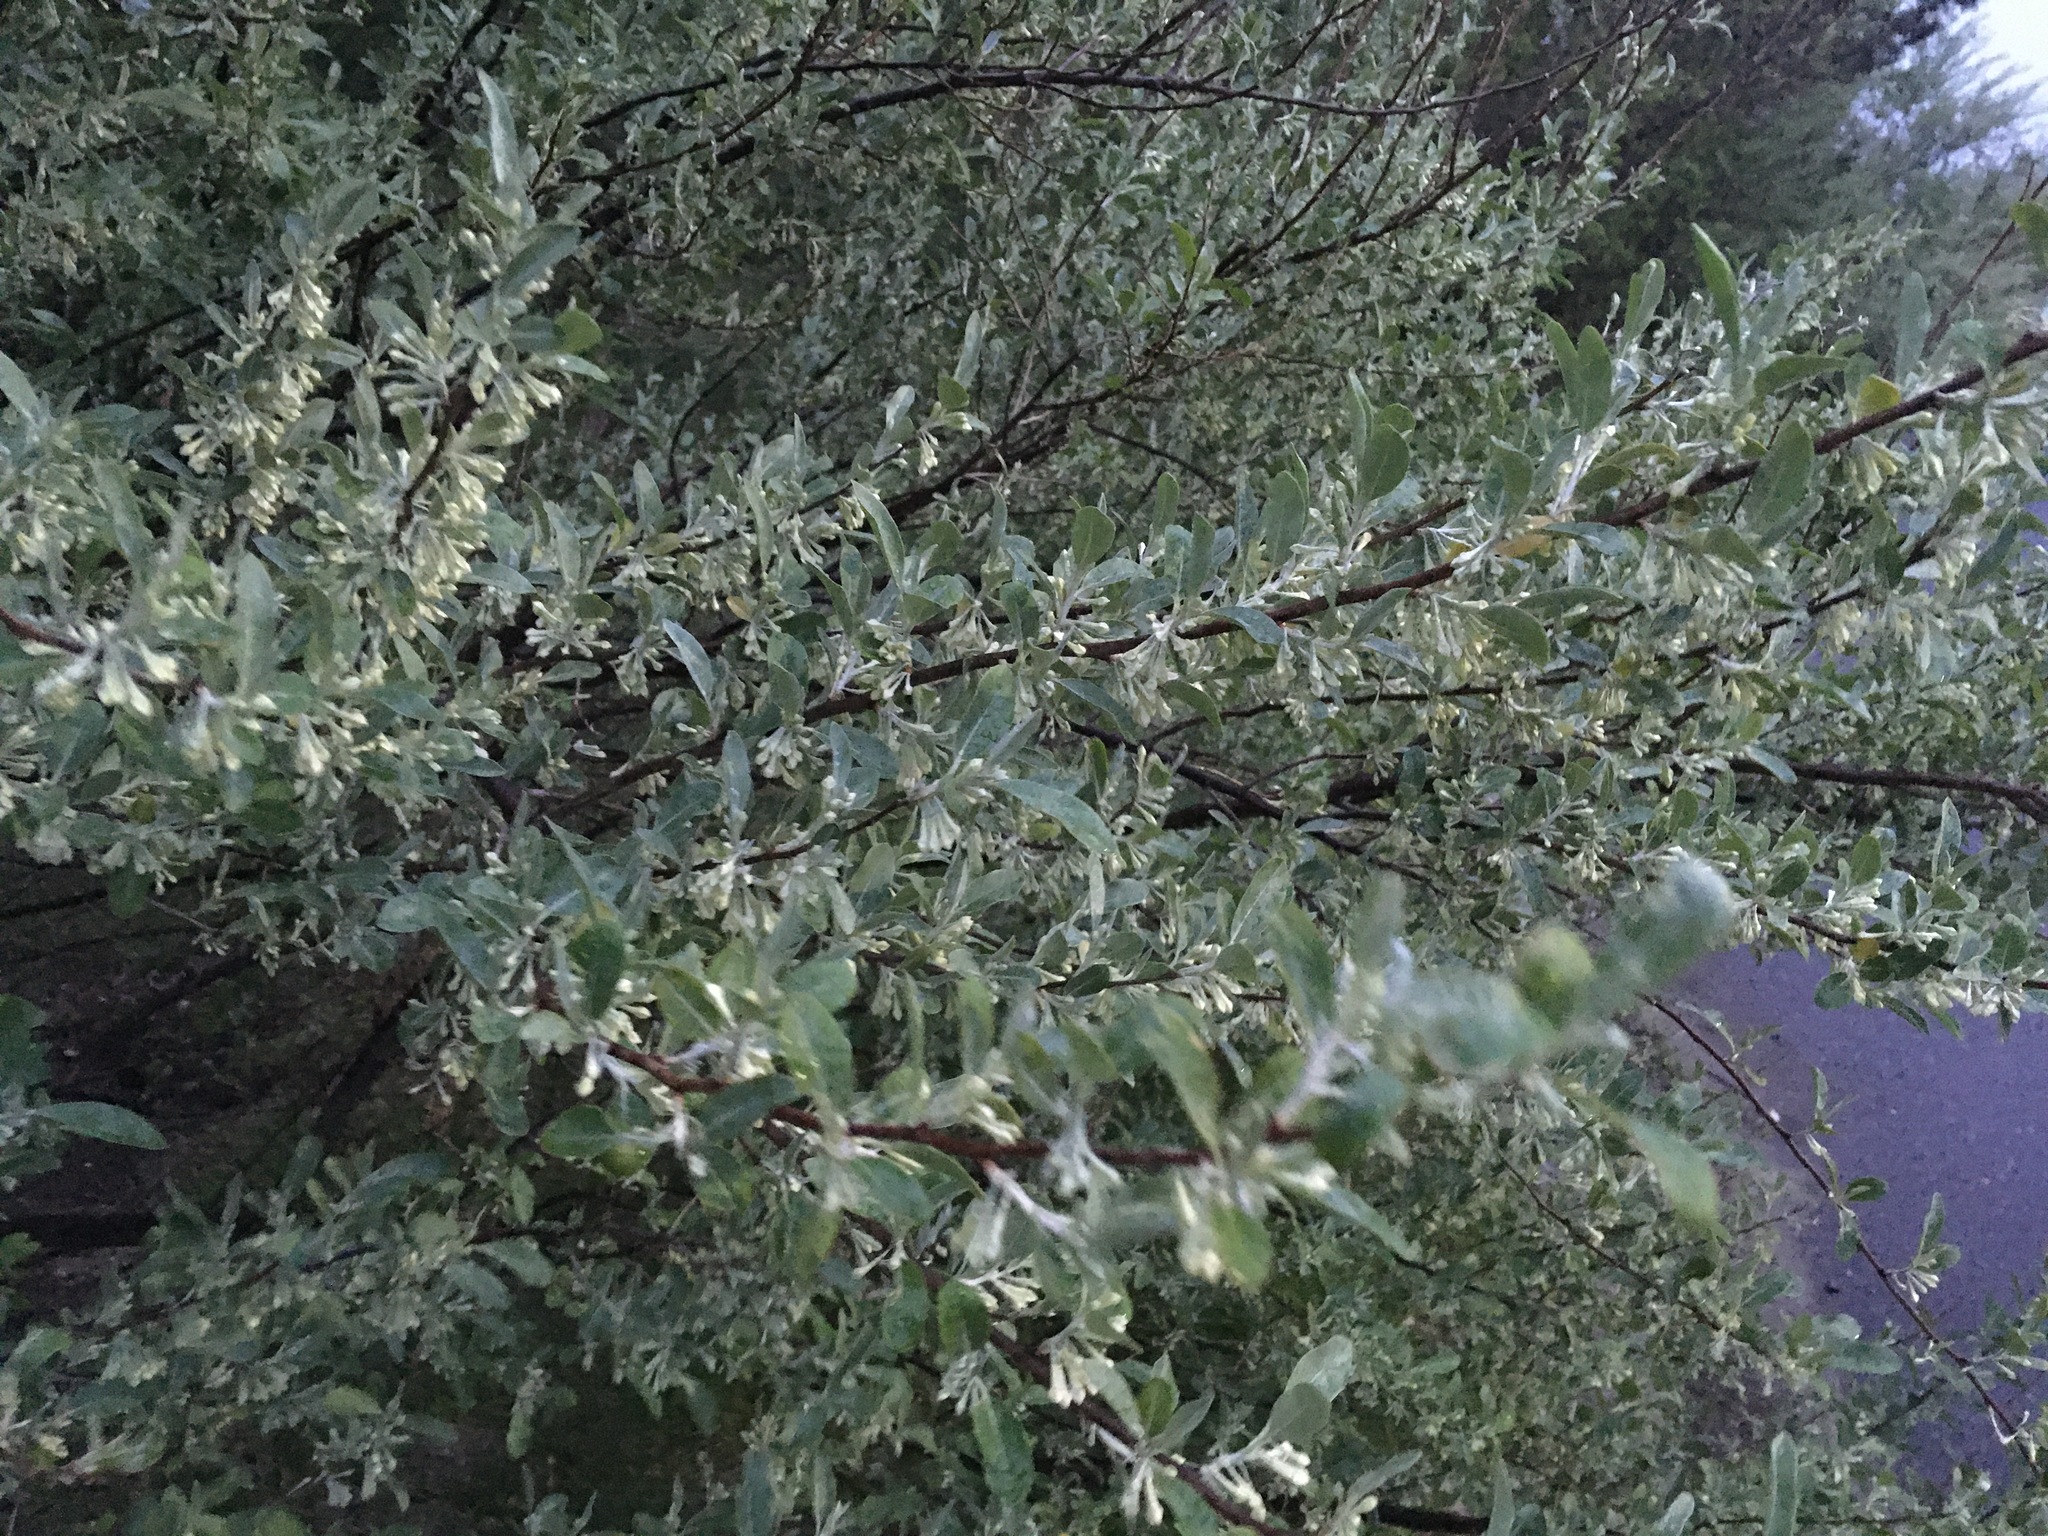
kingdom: Plantae
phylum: Tracheophyta
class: Magnoliopsida
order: Rosales
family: Elaeagnaceae
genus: Elaeagnus
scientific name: Elaeagnus umbellata
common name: Autumn olive
